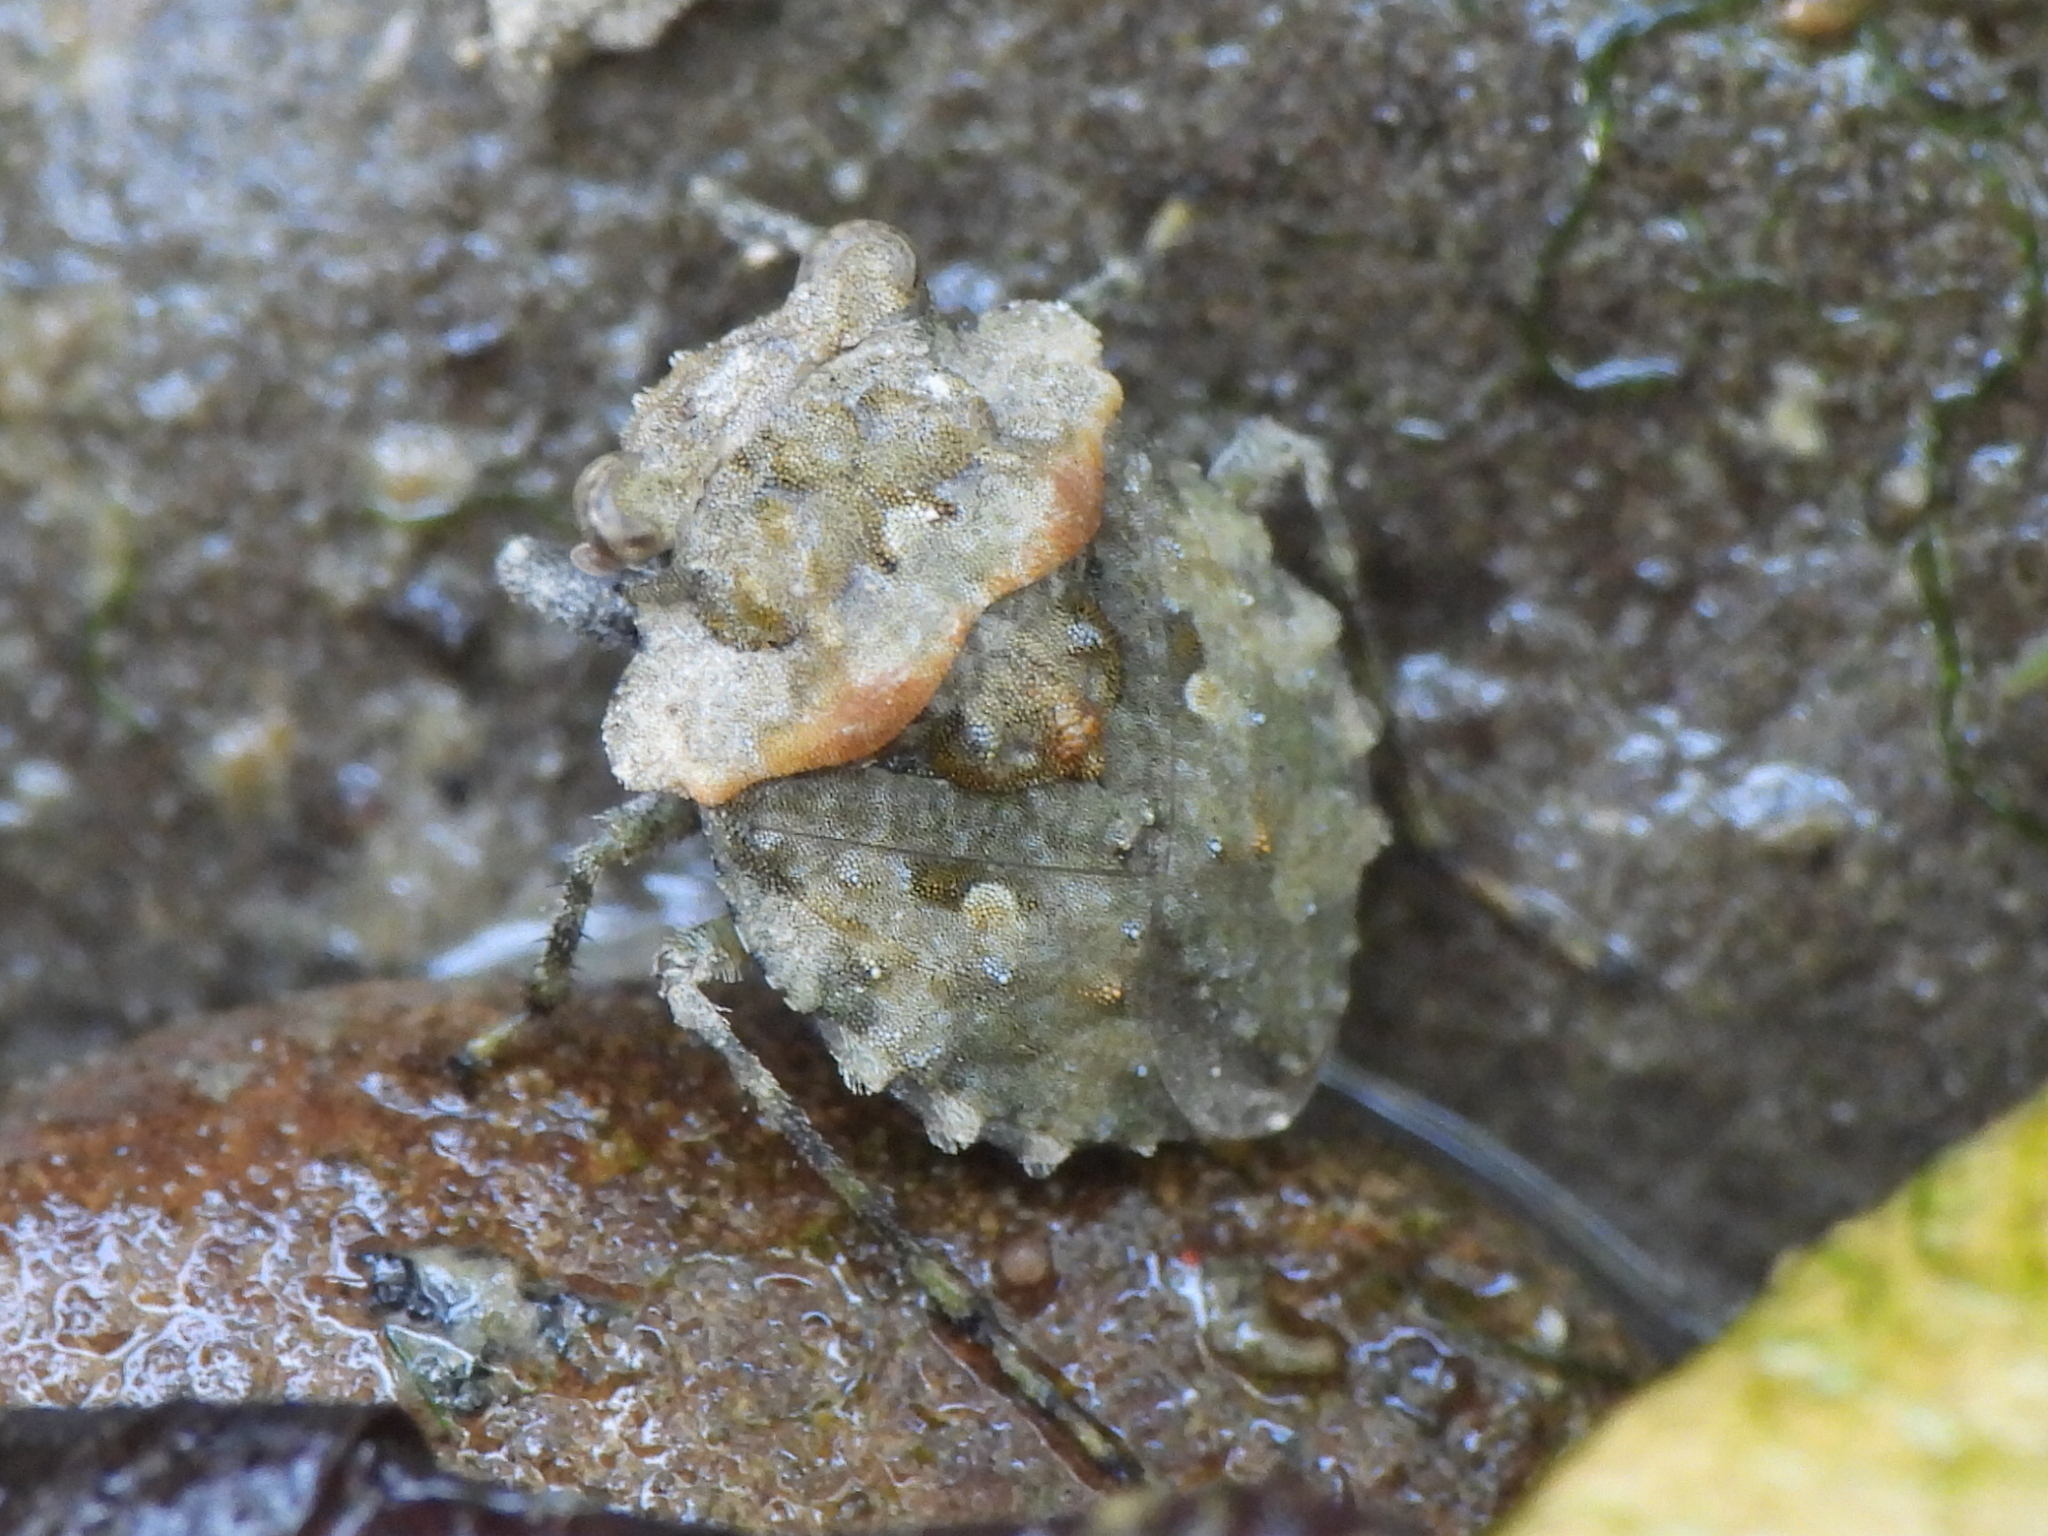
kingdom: Animalia
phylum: Arthropoda
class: Insecta
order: Hemiptera
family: Gelastocoridae
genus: Gelastocoris
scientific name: Gelastocoris oculatus
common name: Toad bug
